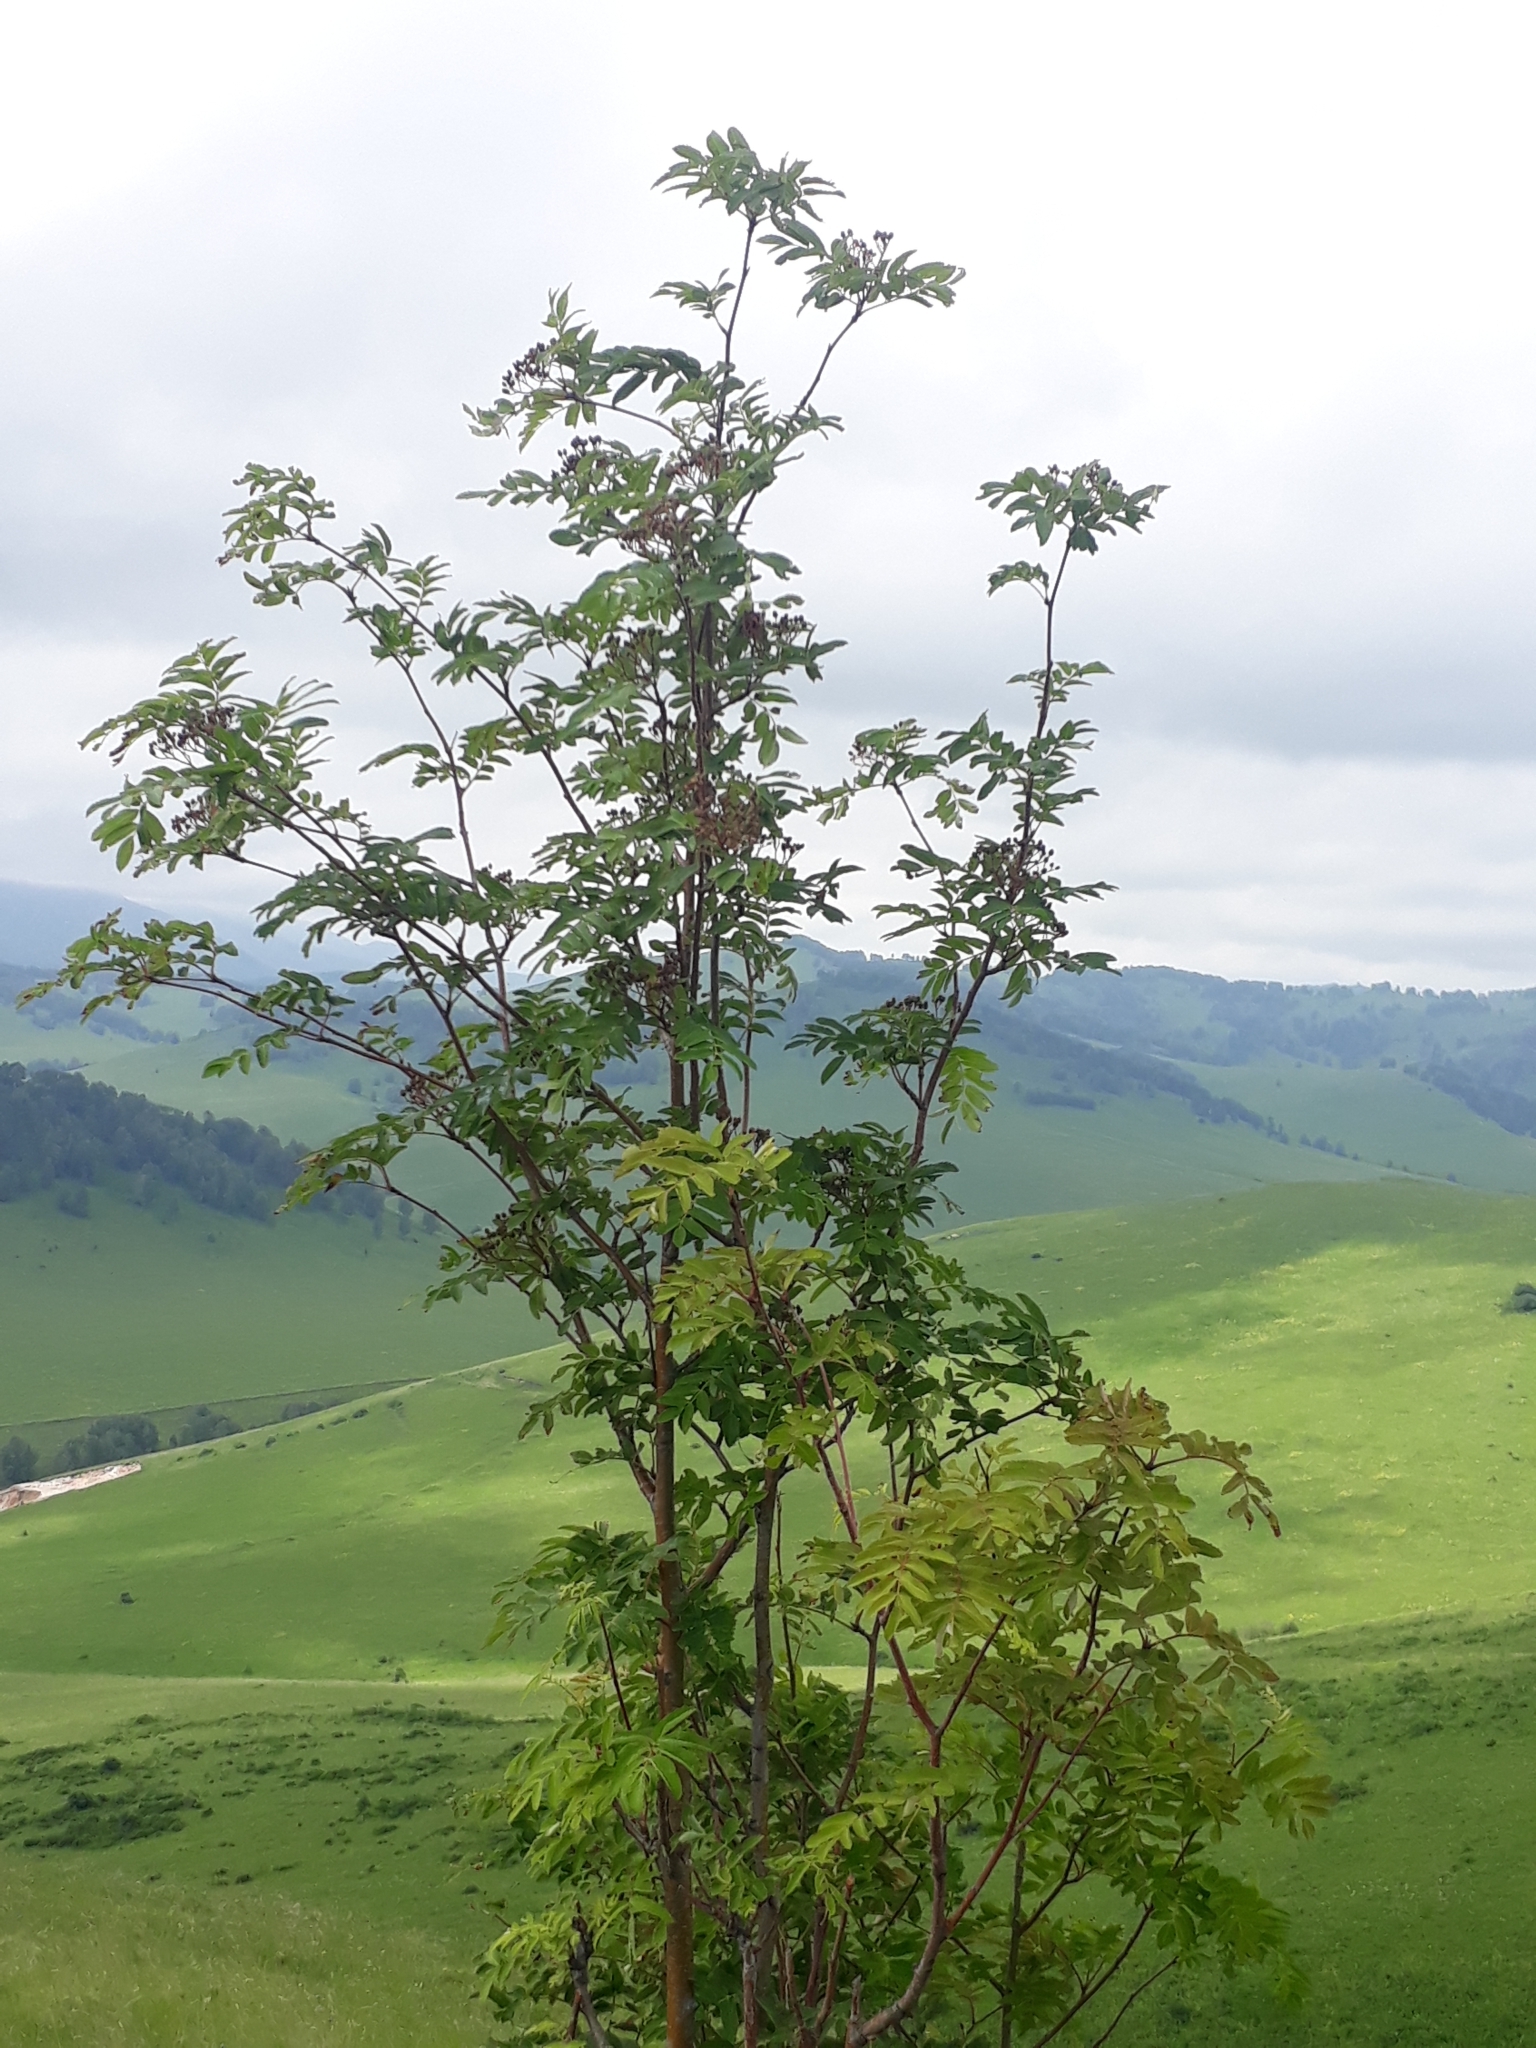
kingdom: Plantae
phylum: Tracheophyta
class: Magnoliopsida
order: Rosales
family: Rosaceae
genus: Sorbus
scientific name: Sorbus aucuparia
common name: Rowan
